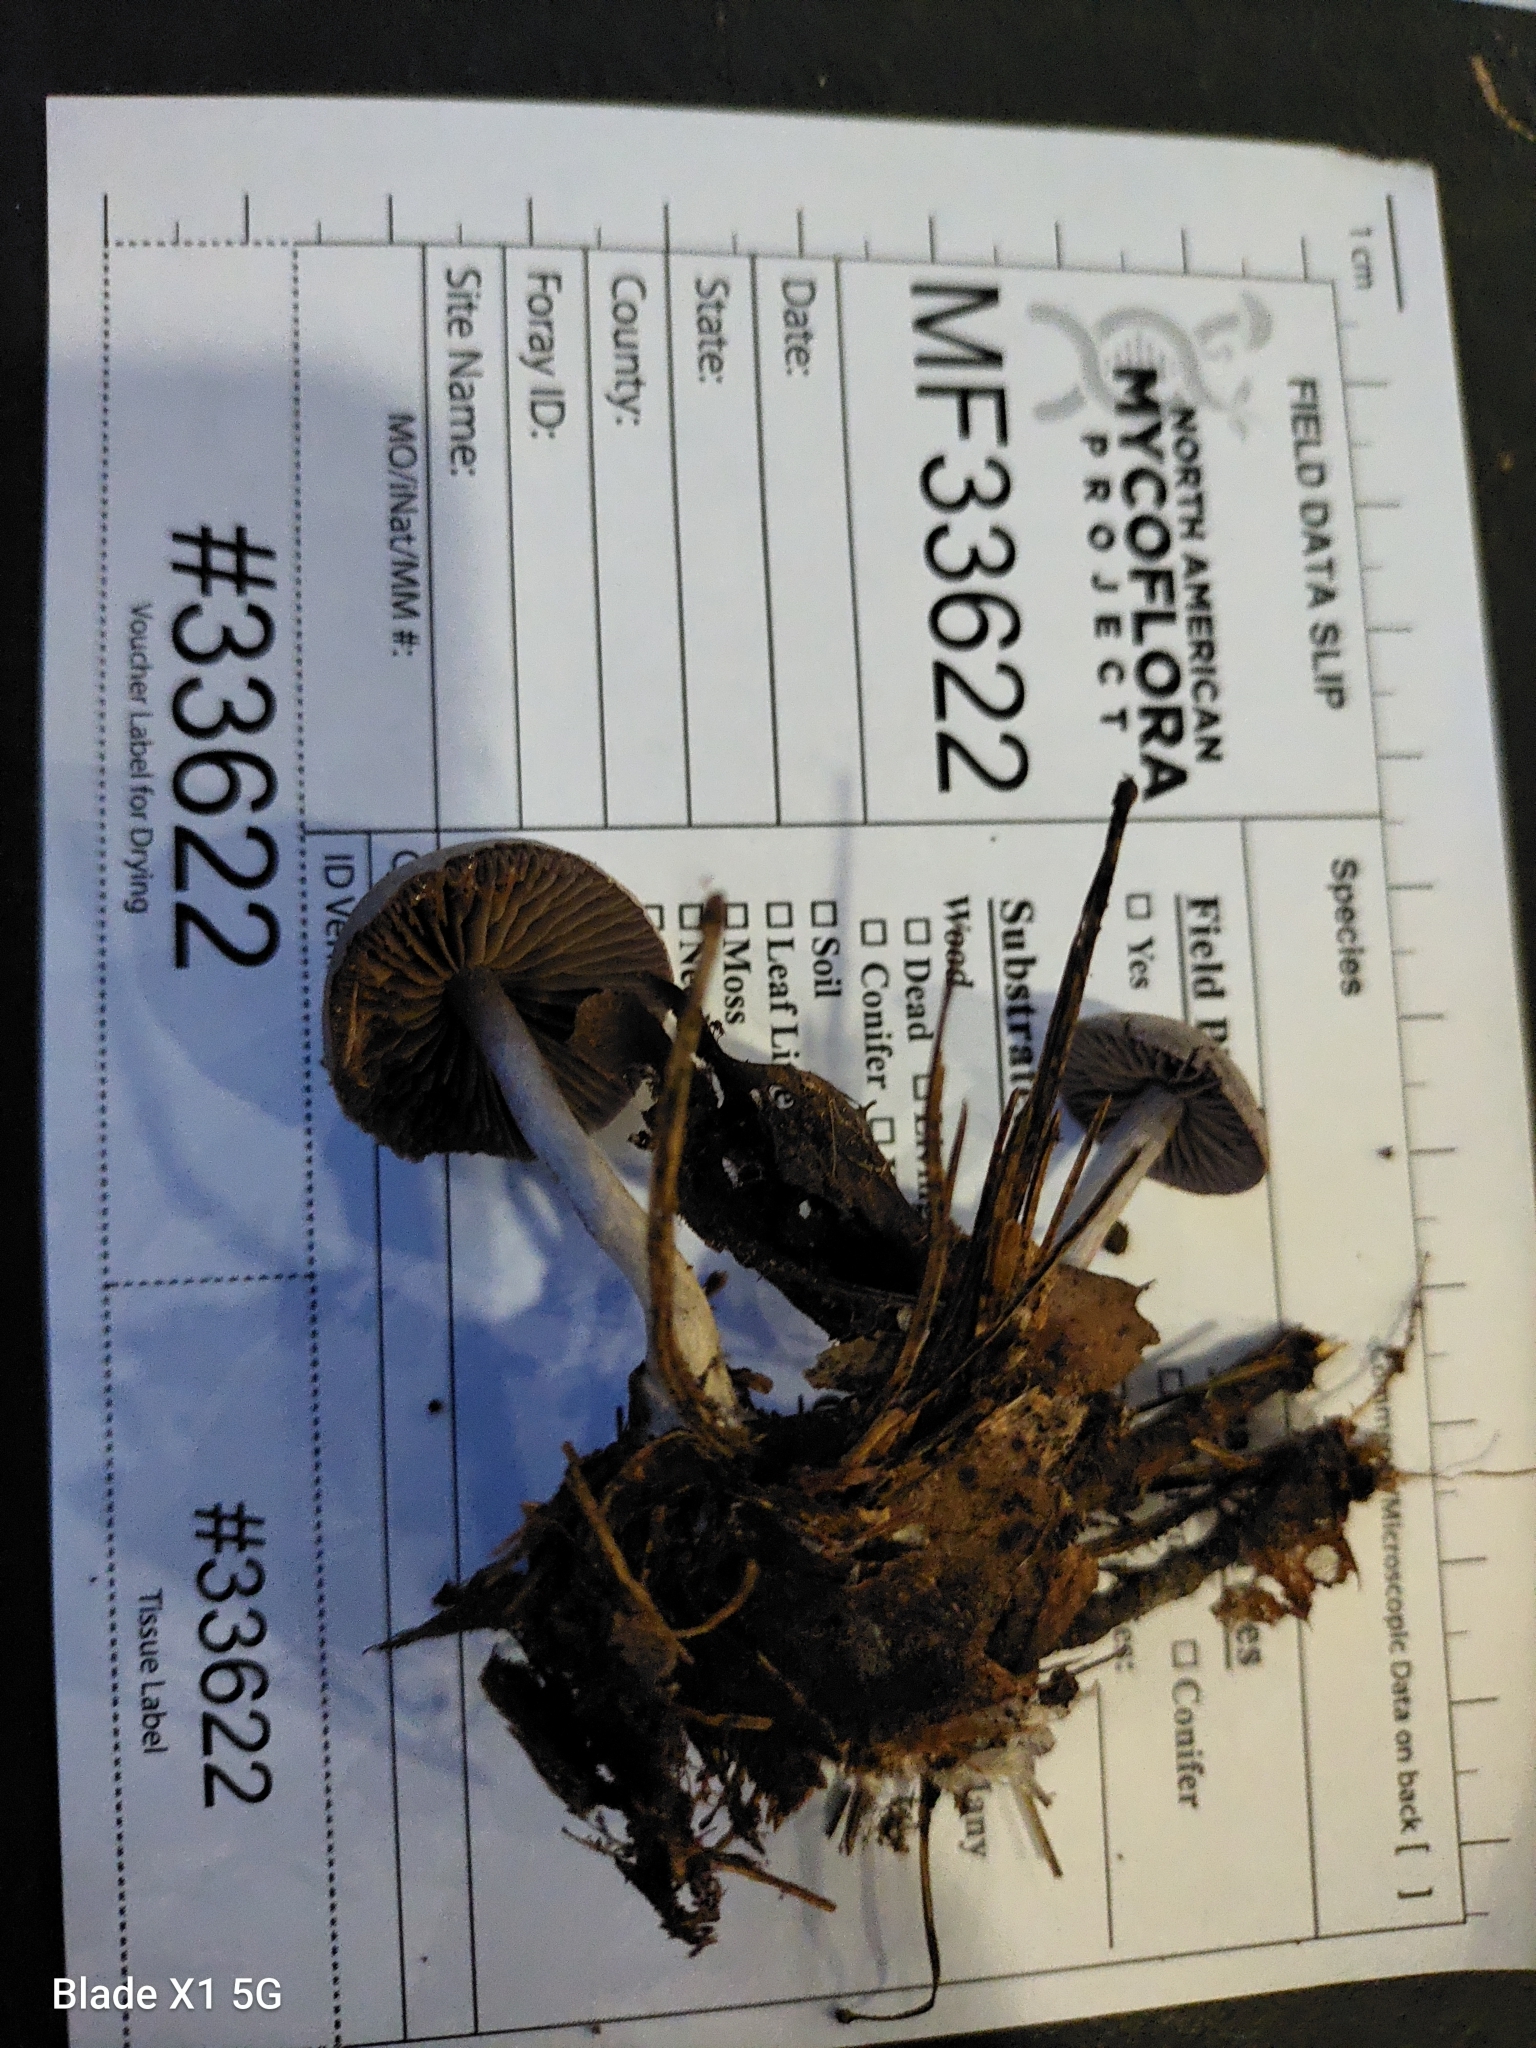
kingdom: Fungi
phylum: Basidiomycota
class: Agaricomycetes
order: Agaricales
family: Cortinariaceae
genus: Cortinarius
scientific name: Cortinarius perviolaceus
